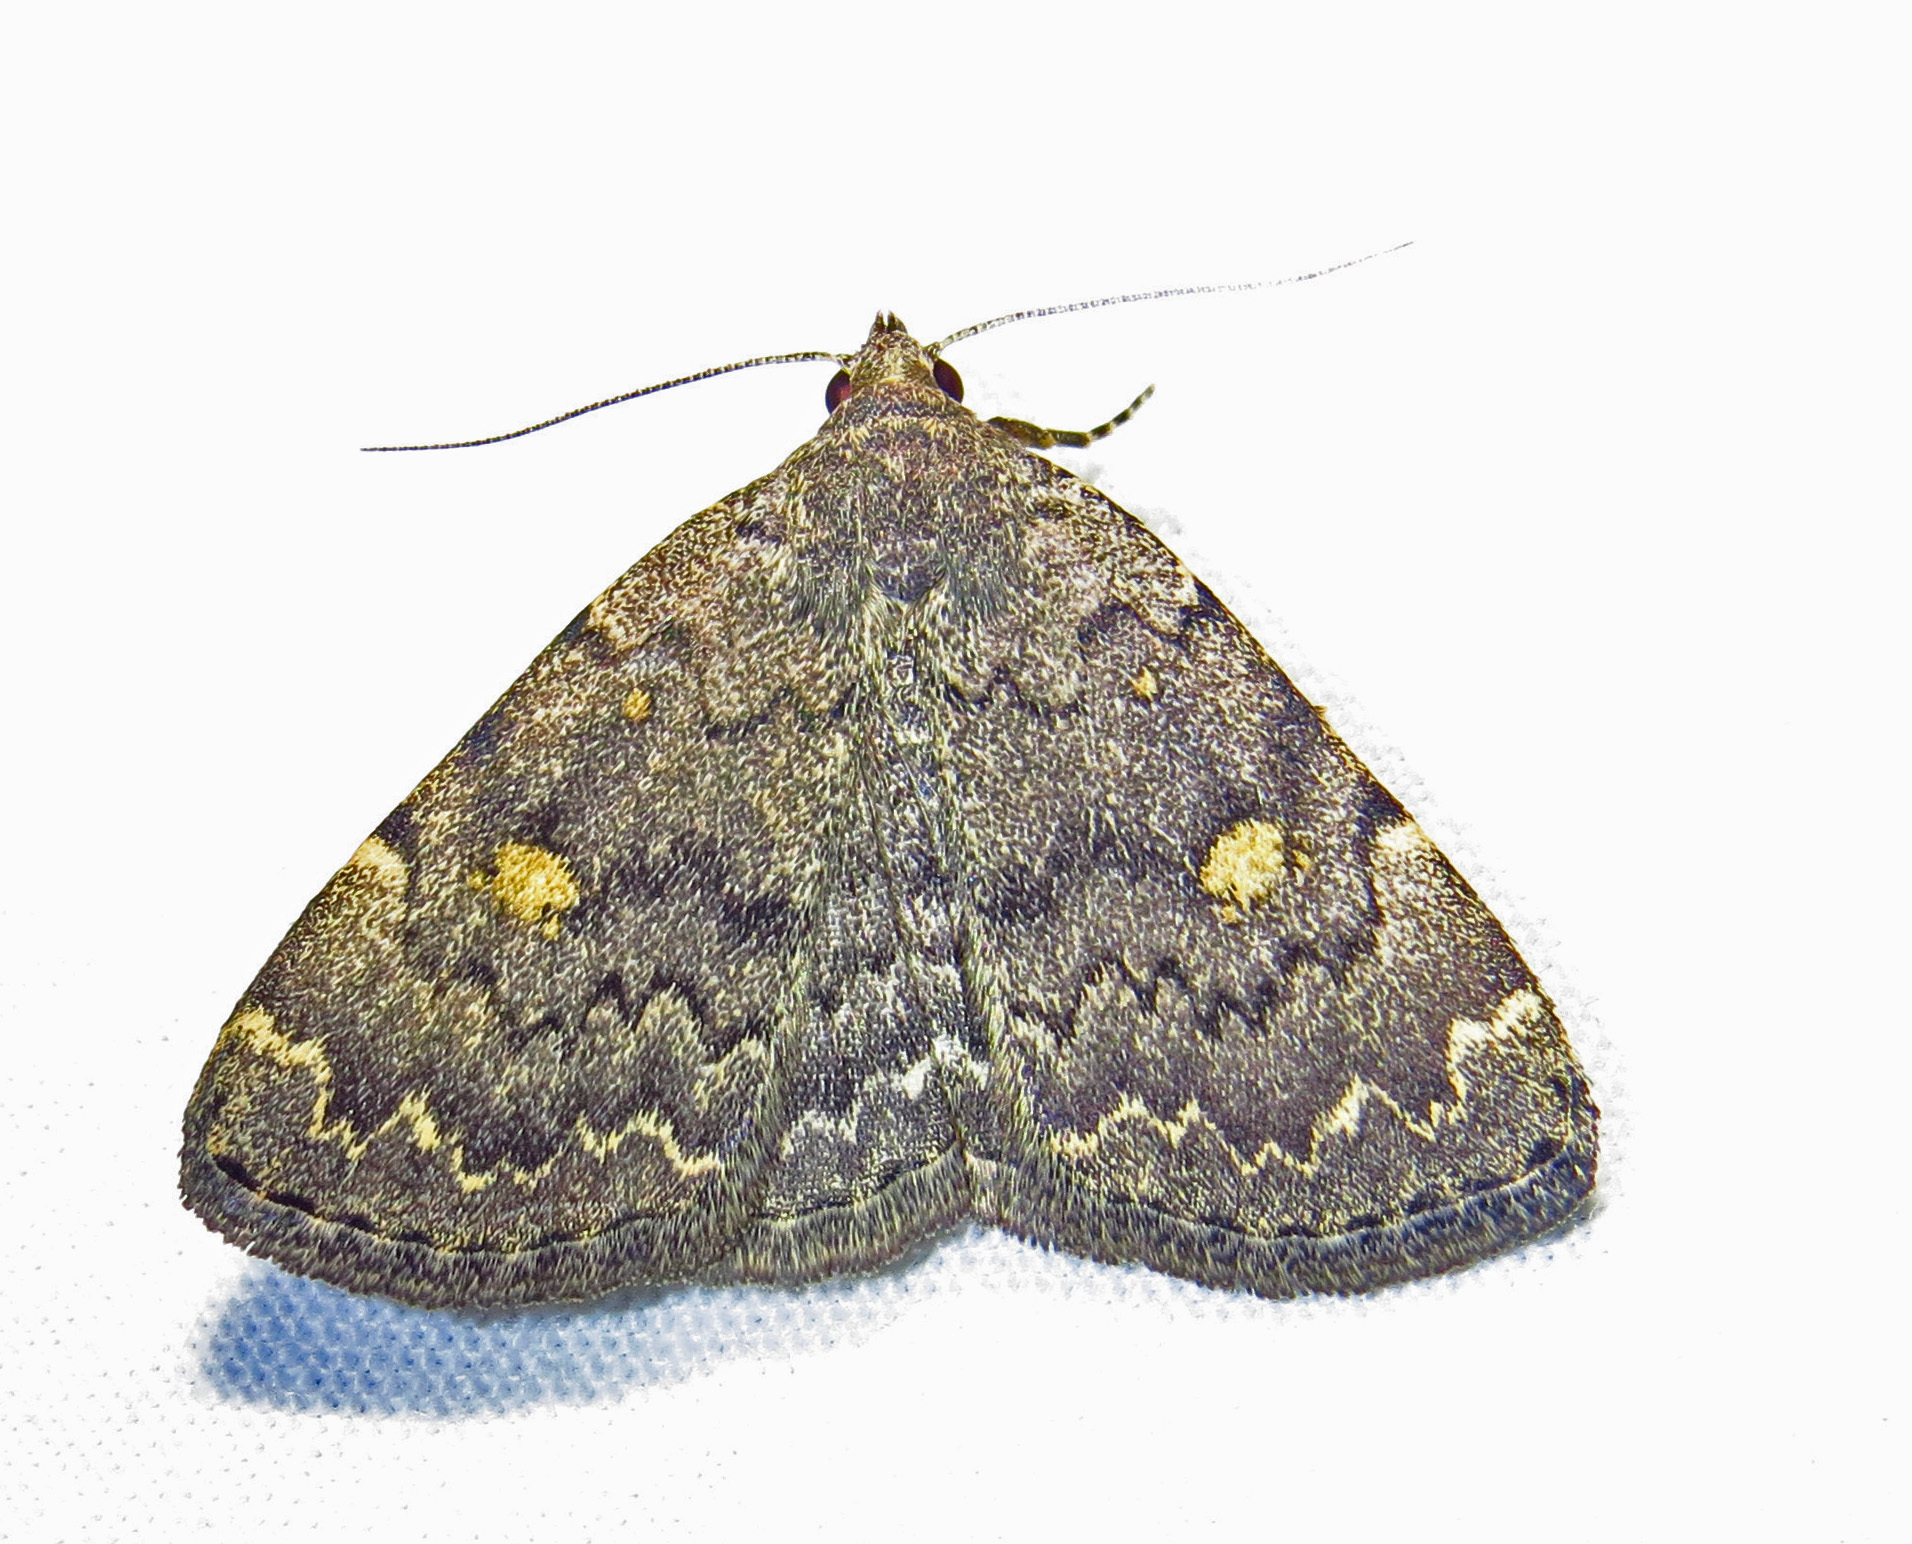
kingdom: Animalia
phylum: Arthropoda
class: Insecta
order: Lepidoptera
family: Erebidae
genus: Idia
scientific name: Idia aemula
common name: Common idia moth
